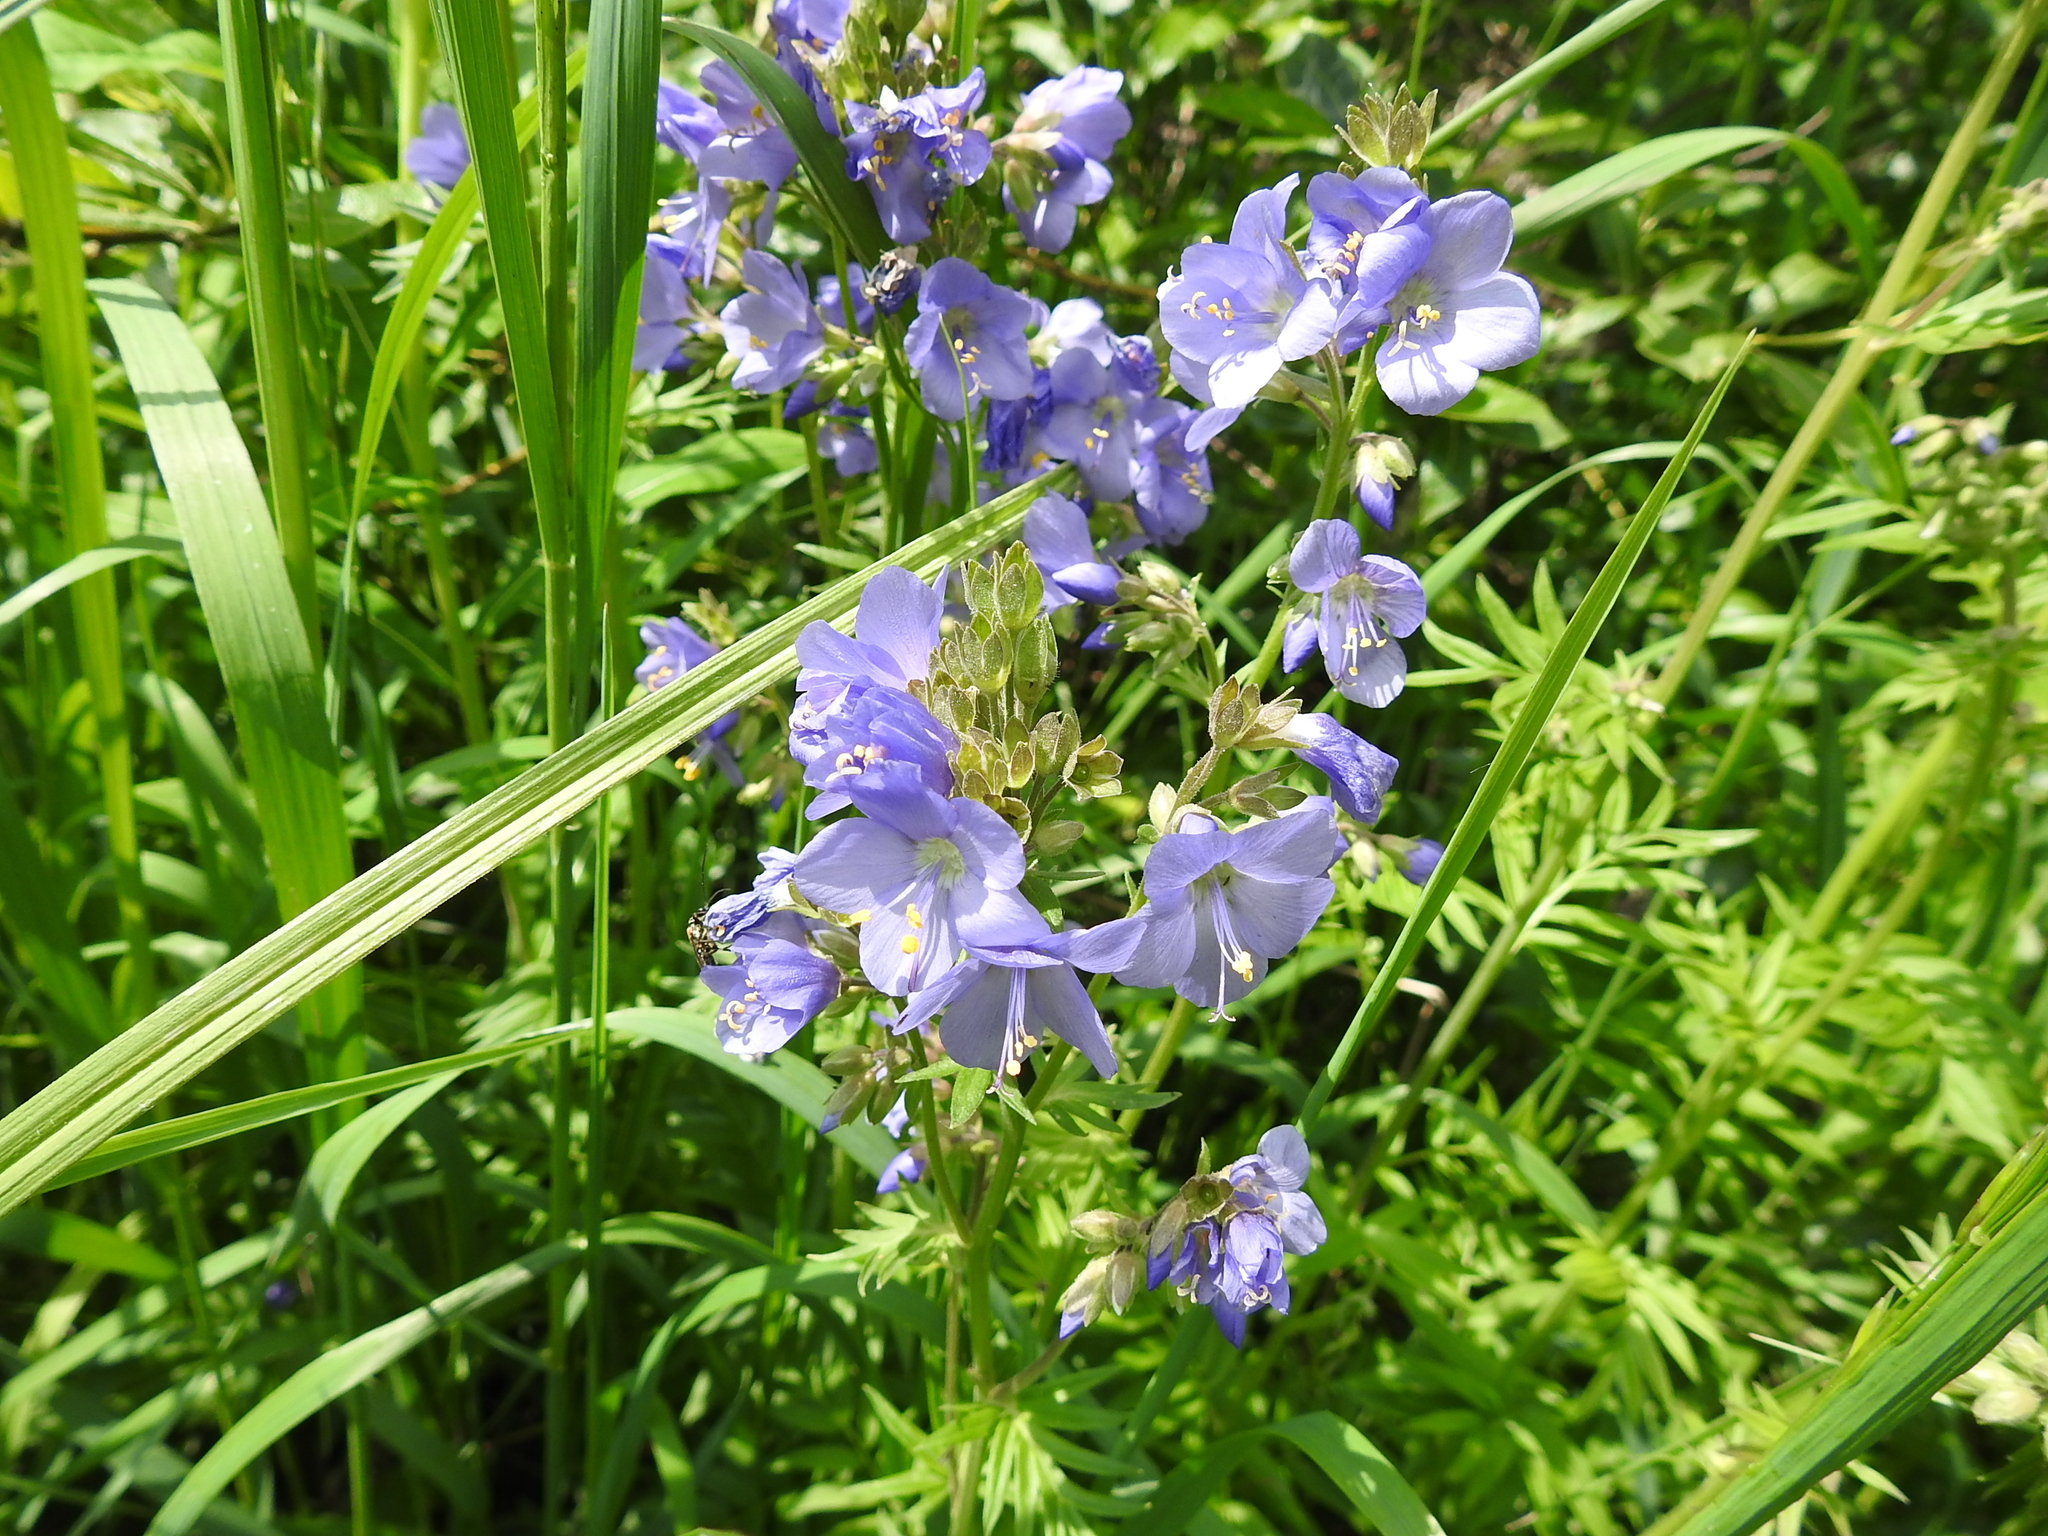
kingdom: Plantae
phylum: Tracheophyta
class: Magnoliopsida
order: Ericales
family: Polemoniaceae
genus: Polemonium
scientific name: Polemonium caeruleum
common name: Jacob's-ladder
